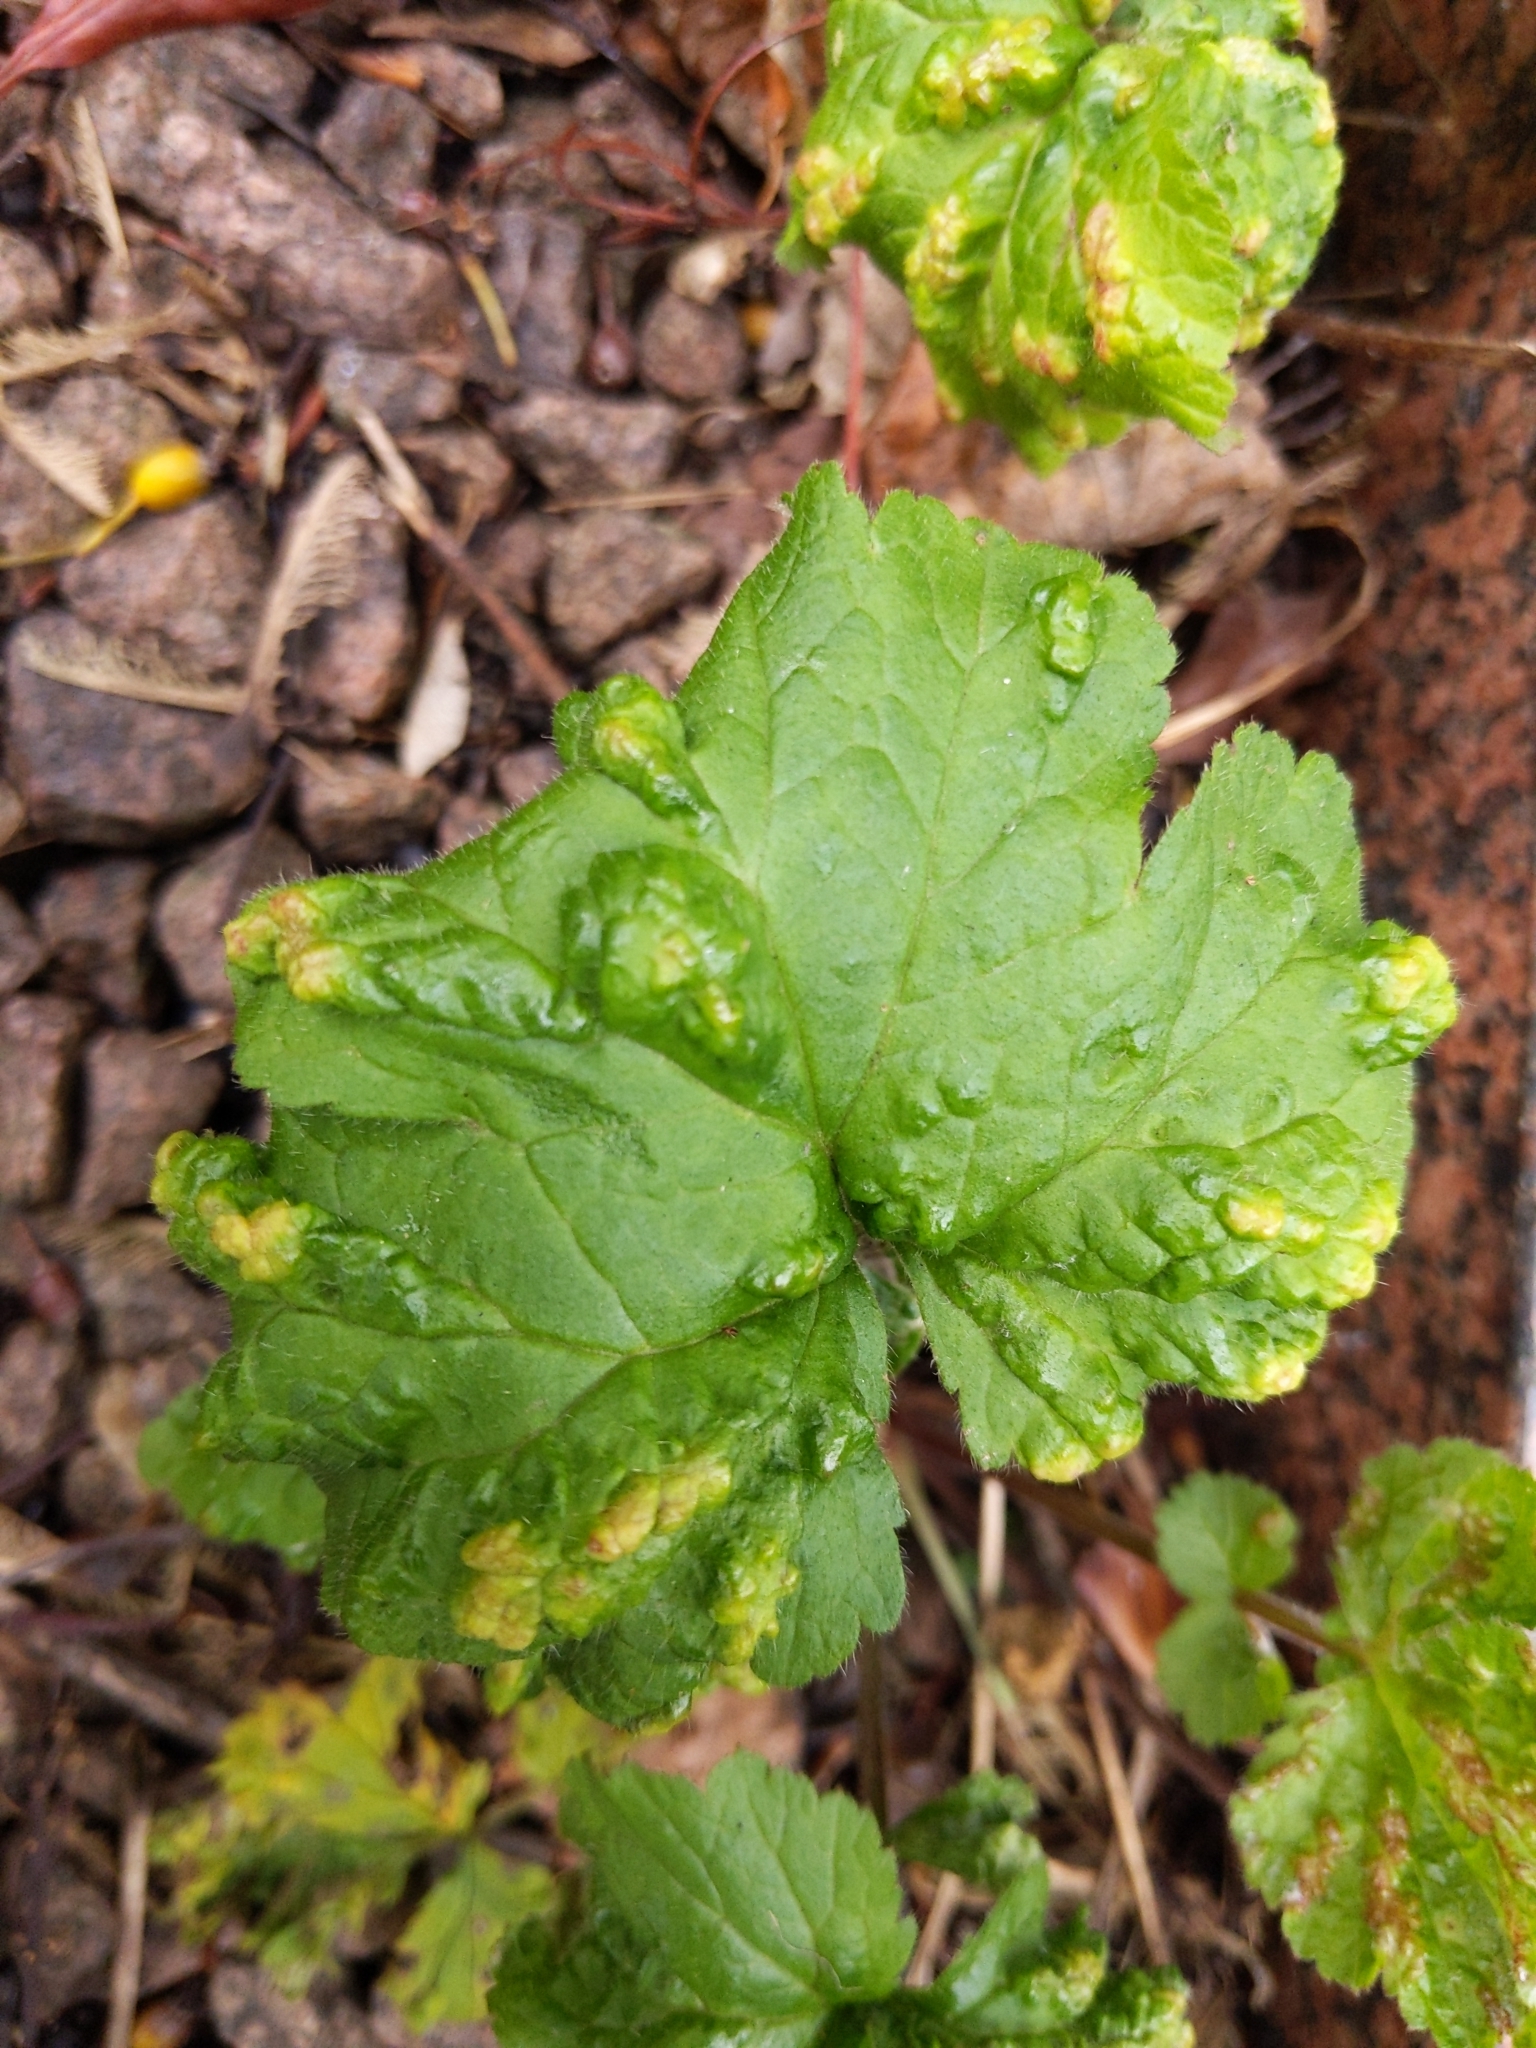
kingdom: Animalia
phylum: Arthropoda
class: Arachnida
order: Trombidiformes
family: Eriophyidae
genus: Cecidophyes
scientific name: Cecidophyes nudus
